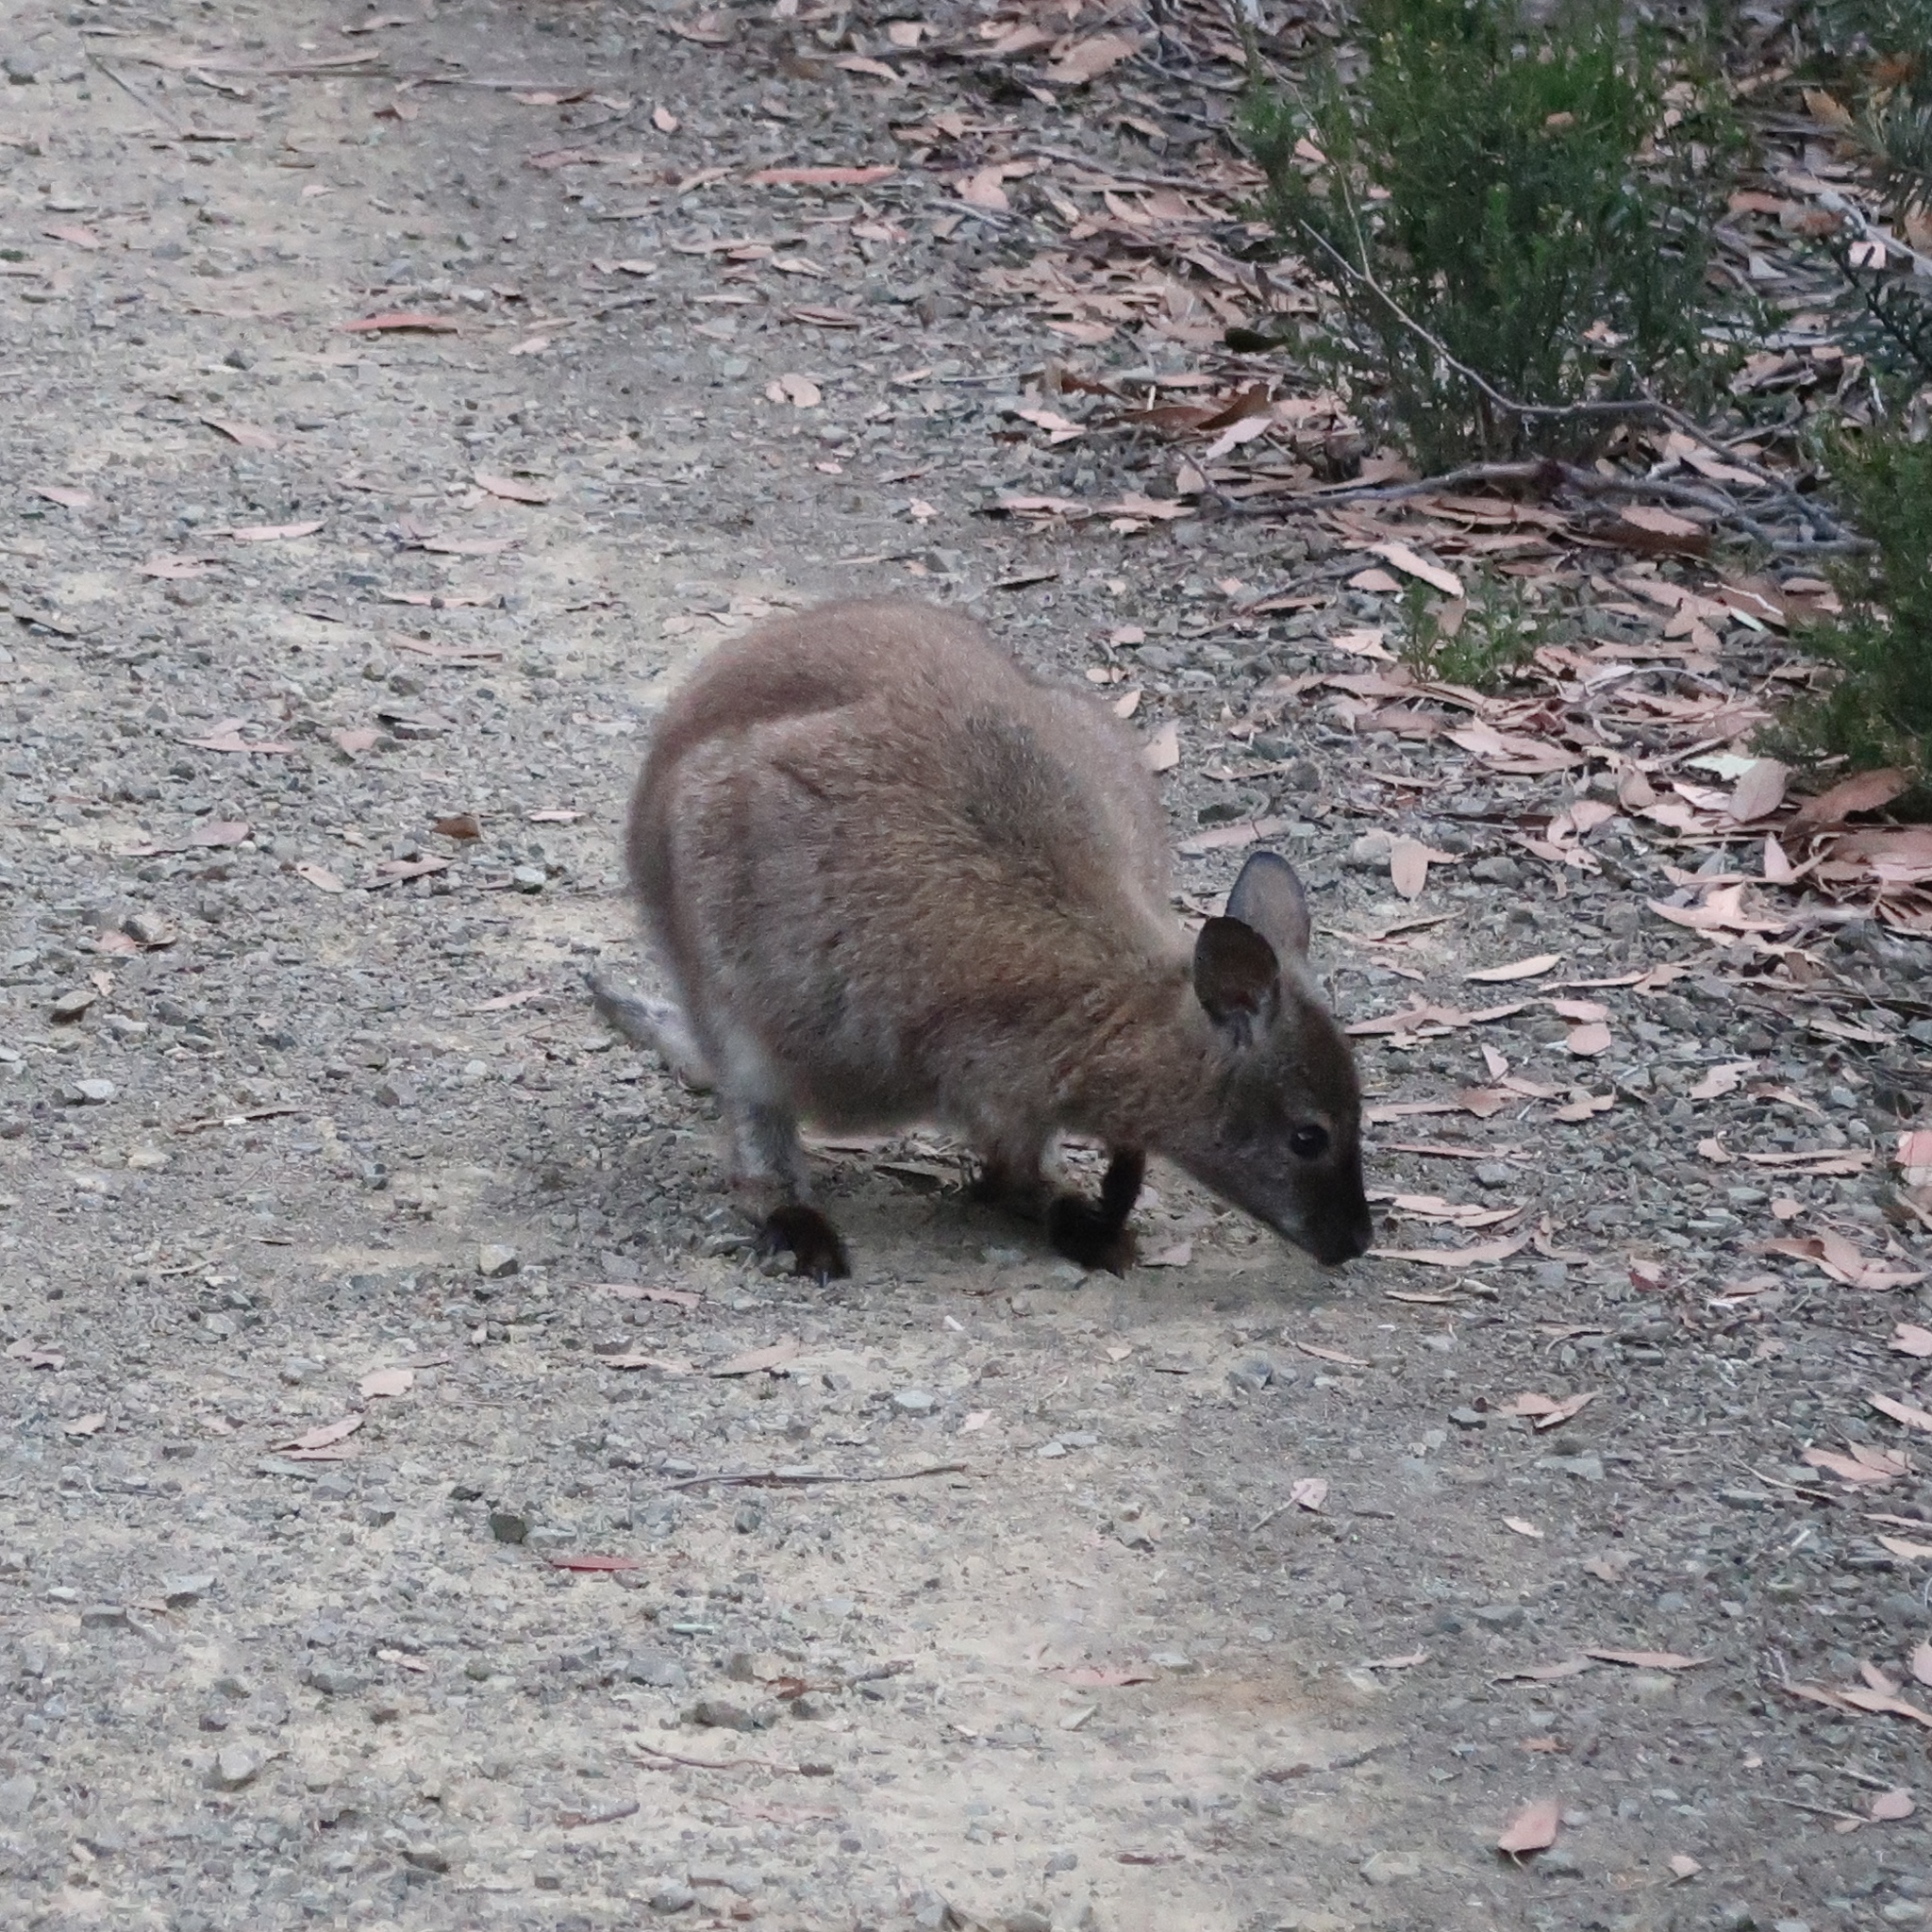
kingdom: Animalia
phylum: Chordata
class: Mammalia
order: Diprotodontia
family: Macropodidae
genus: Notamacropus
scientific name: Notamacropus rufogriseus
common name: Red-necked wallaby
